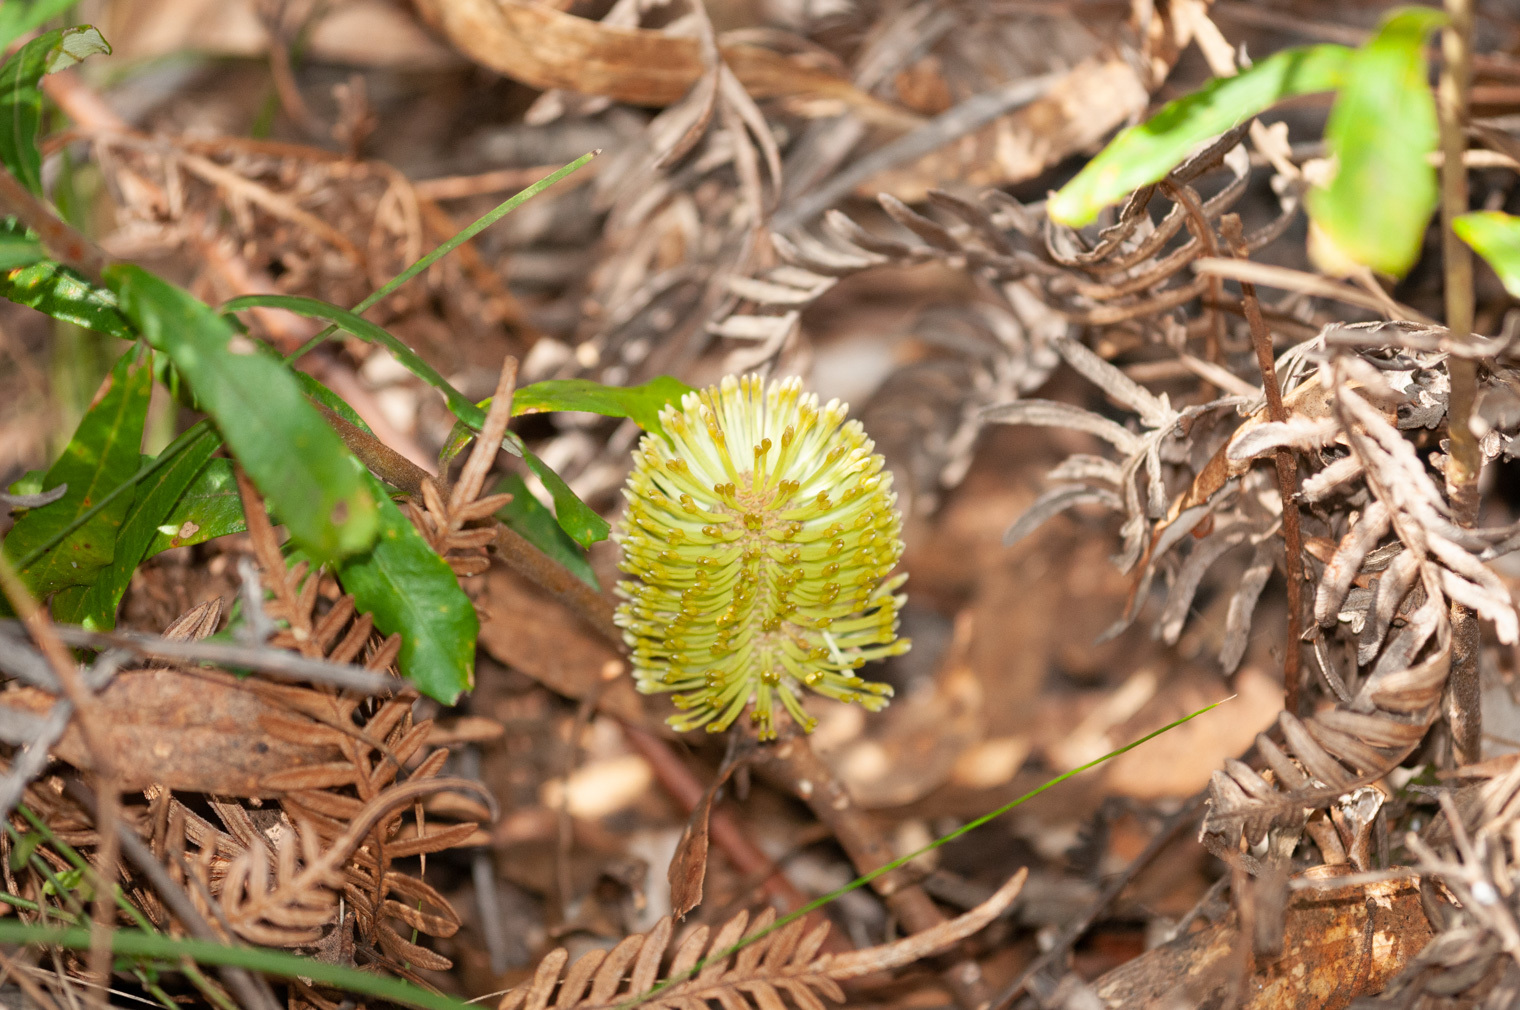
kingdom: Plantae
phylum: Tracheophyta
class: Magnoliopsida
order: Proteales
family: Proteaceae
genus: Banksia
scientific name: Banksia marginata
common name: Silver banksia
